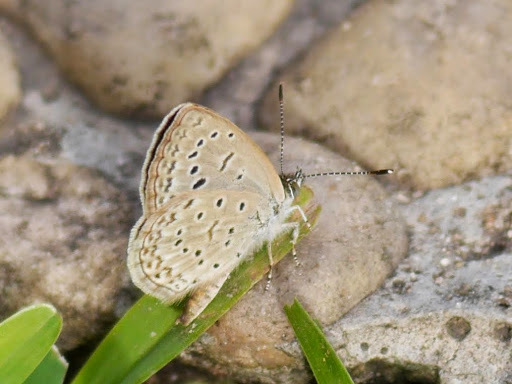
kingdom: Animalia
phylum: Arthropoda
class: Insecta
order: Lepidoptera
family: Lycaenidae
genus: Zizeeria
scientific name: Zizeeria knysna
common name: African grass blue
